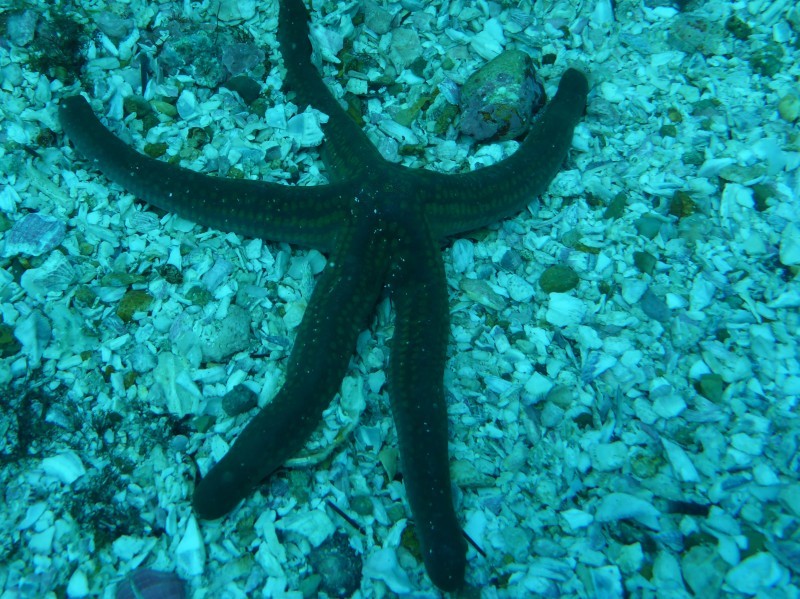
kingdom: Animalia
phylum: Echinodermata
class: Asteroidea
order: Valvatida
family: Ophidiasteridae
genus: Pharia
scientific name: Pharia pyramidata
